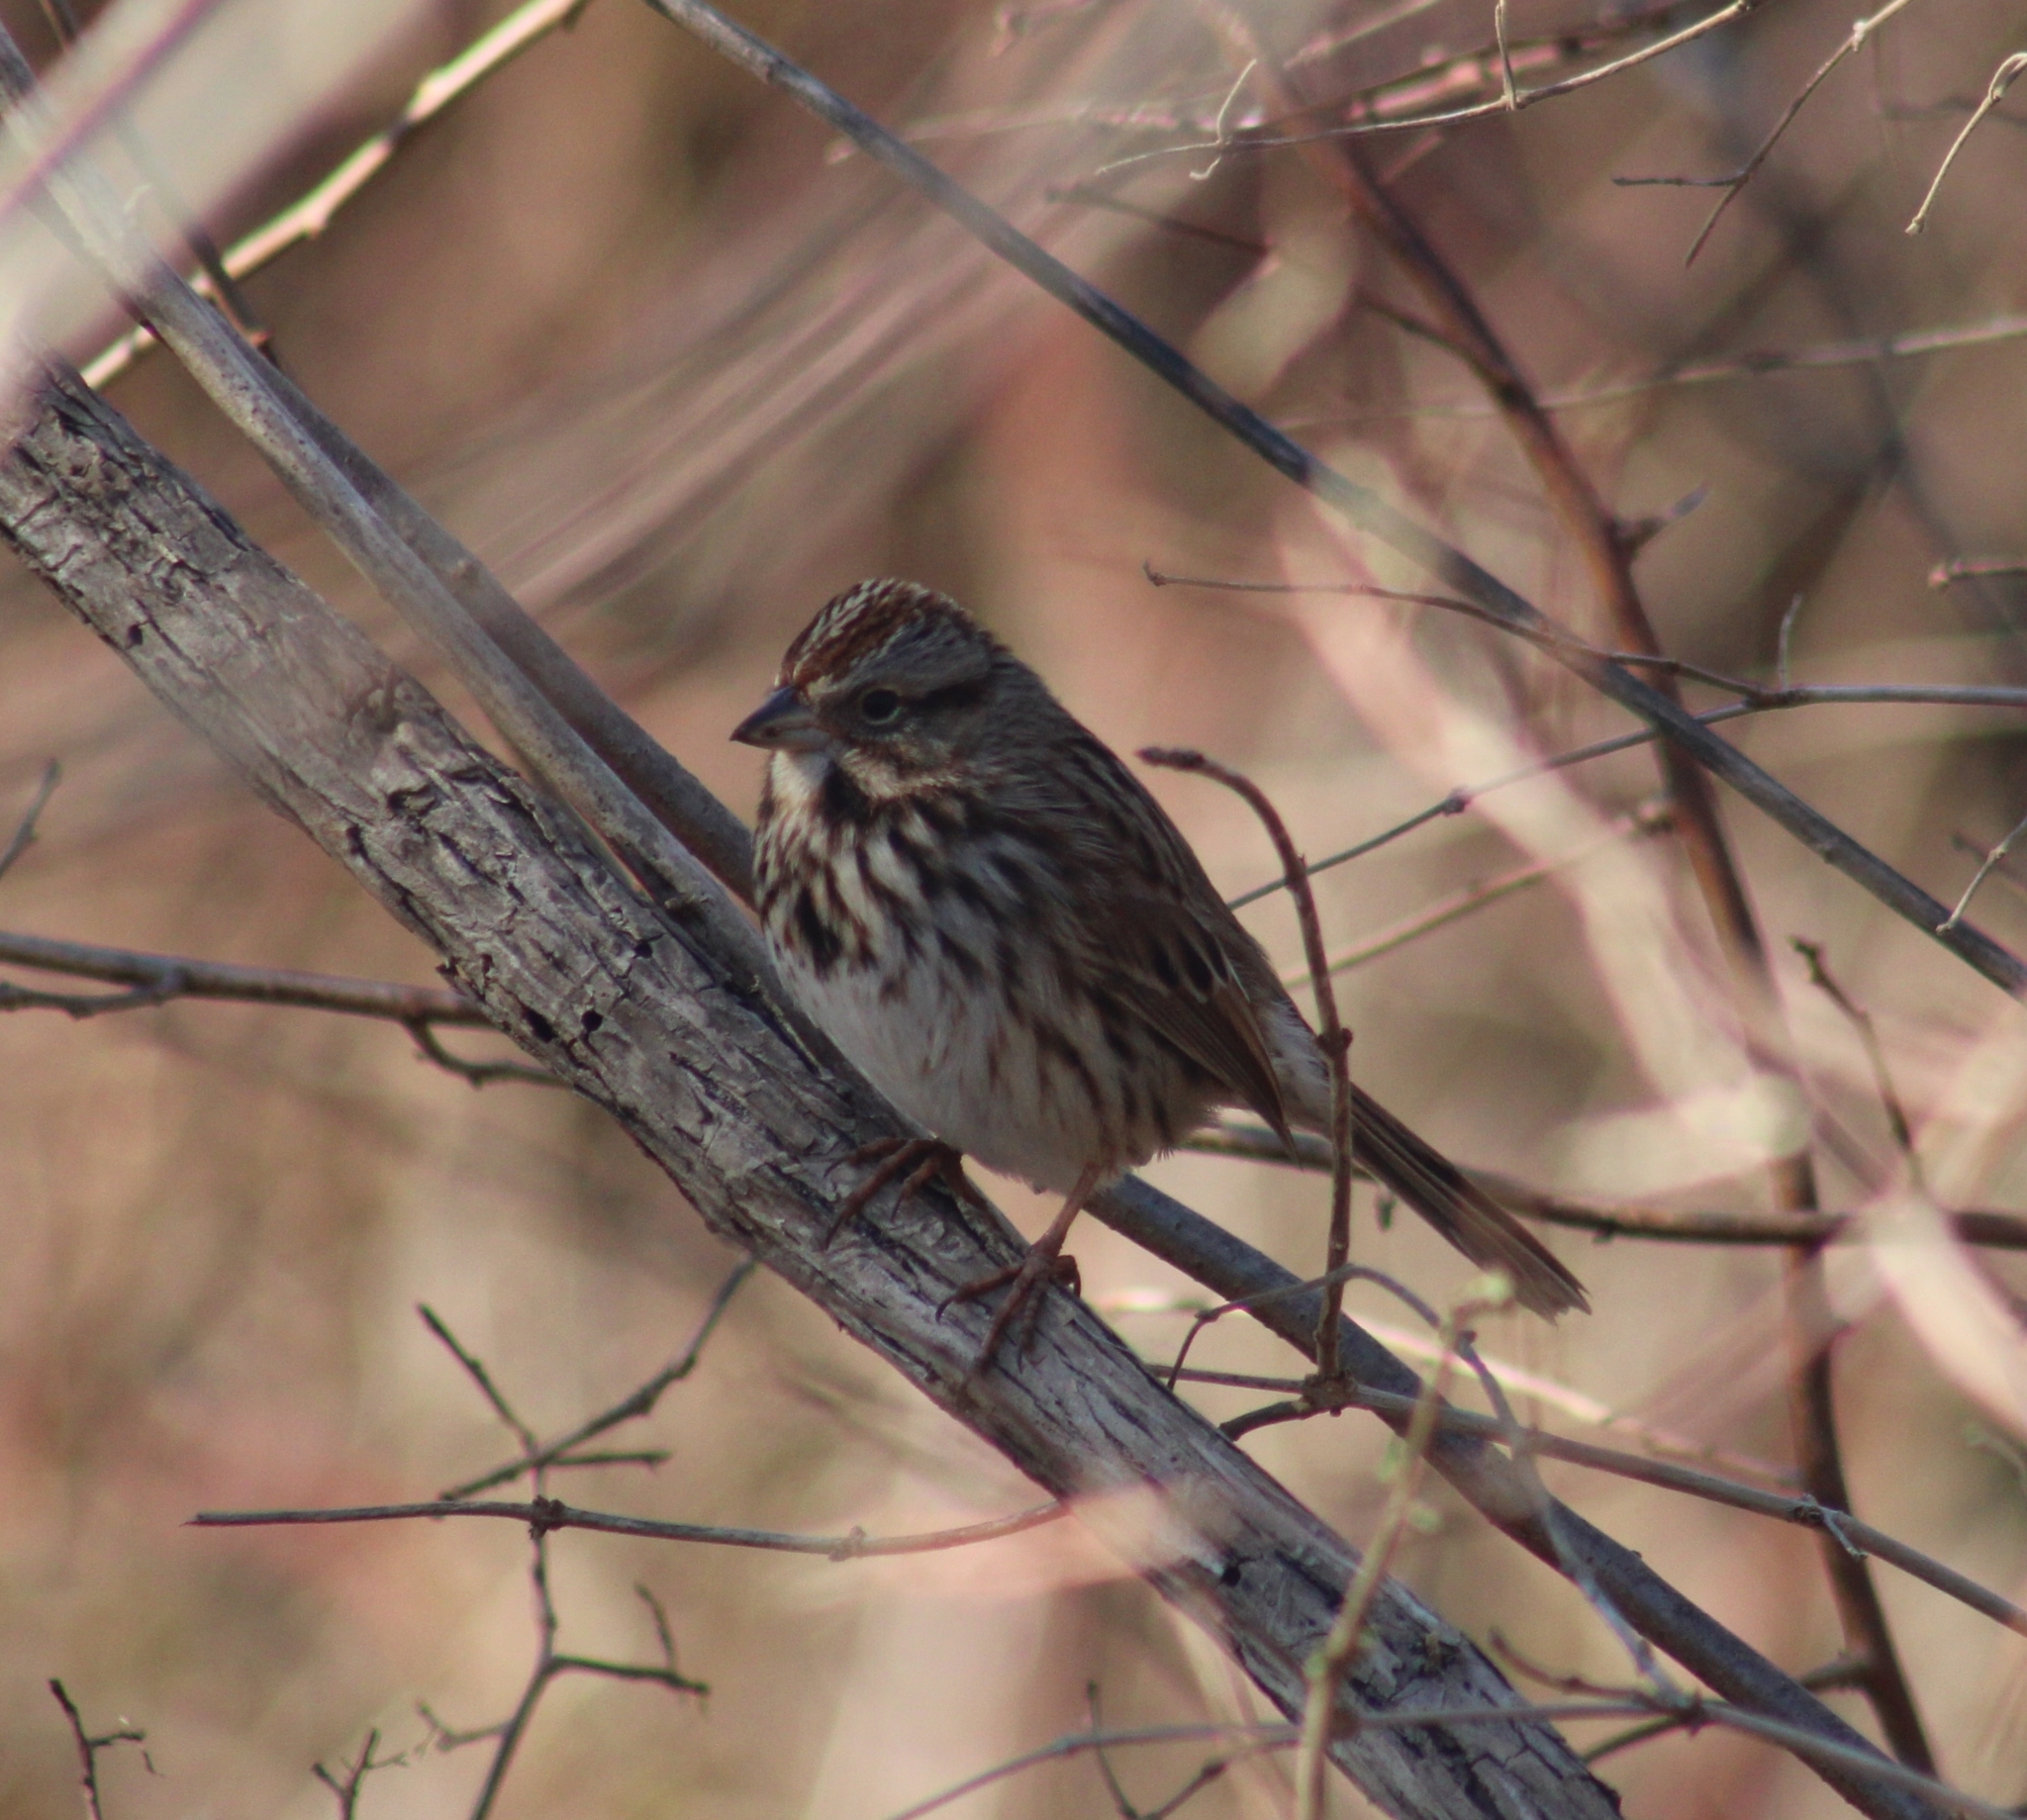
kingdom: Animalia
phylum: Chordata
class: Aves
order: Passeriformes
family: Passerellidae
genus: Melospiza
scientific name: Melospiza melodia
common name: Song sparrow
